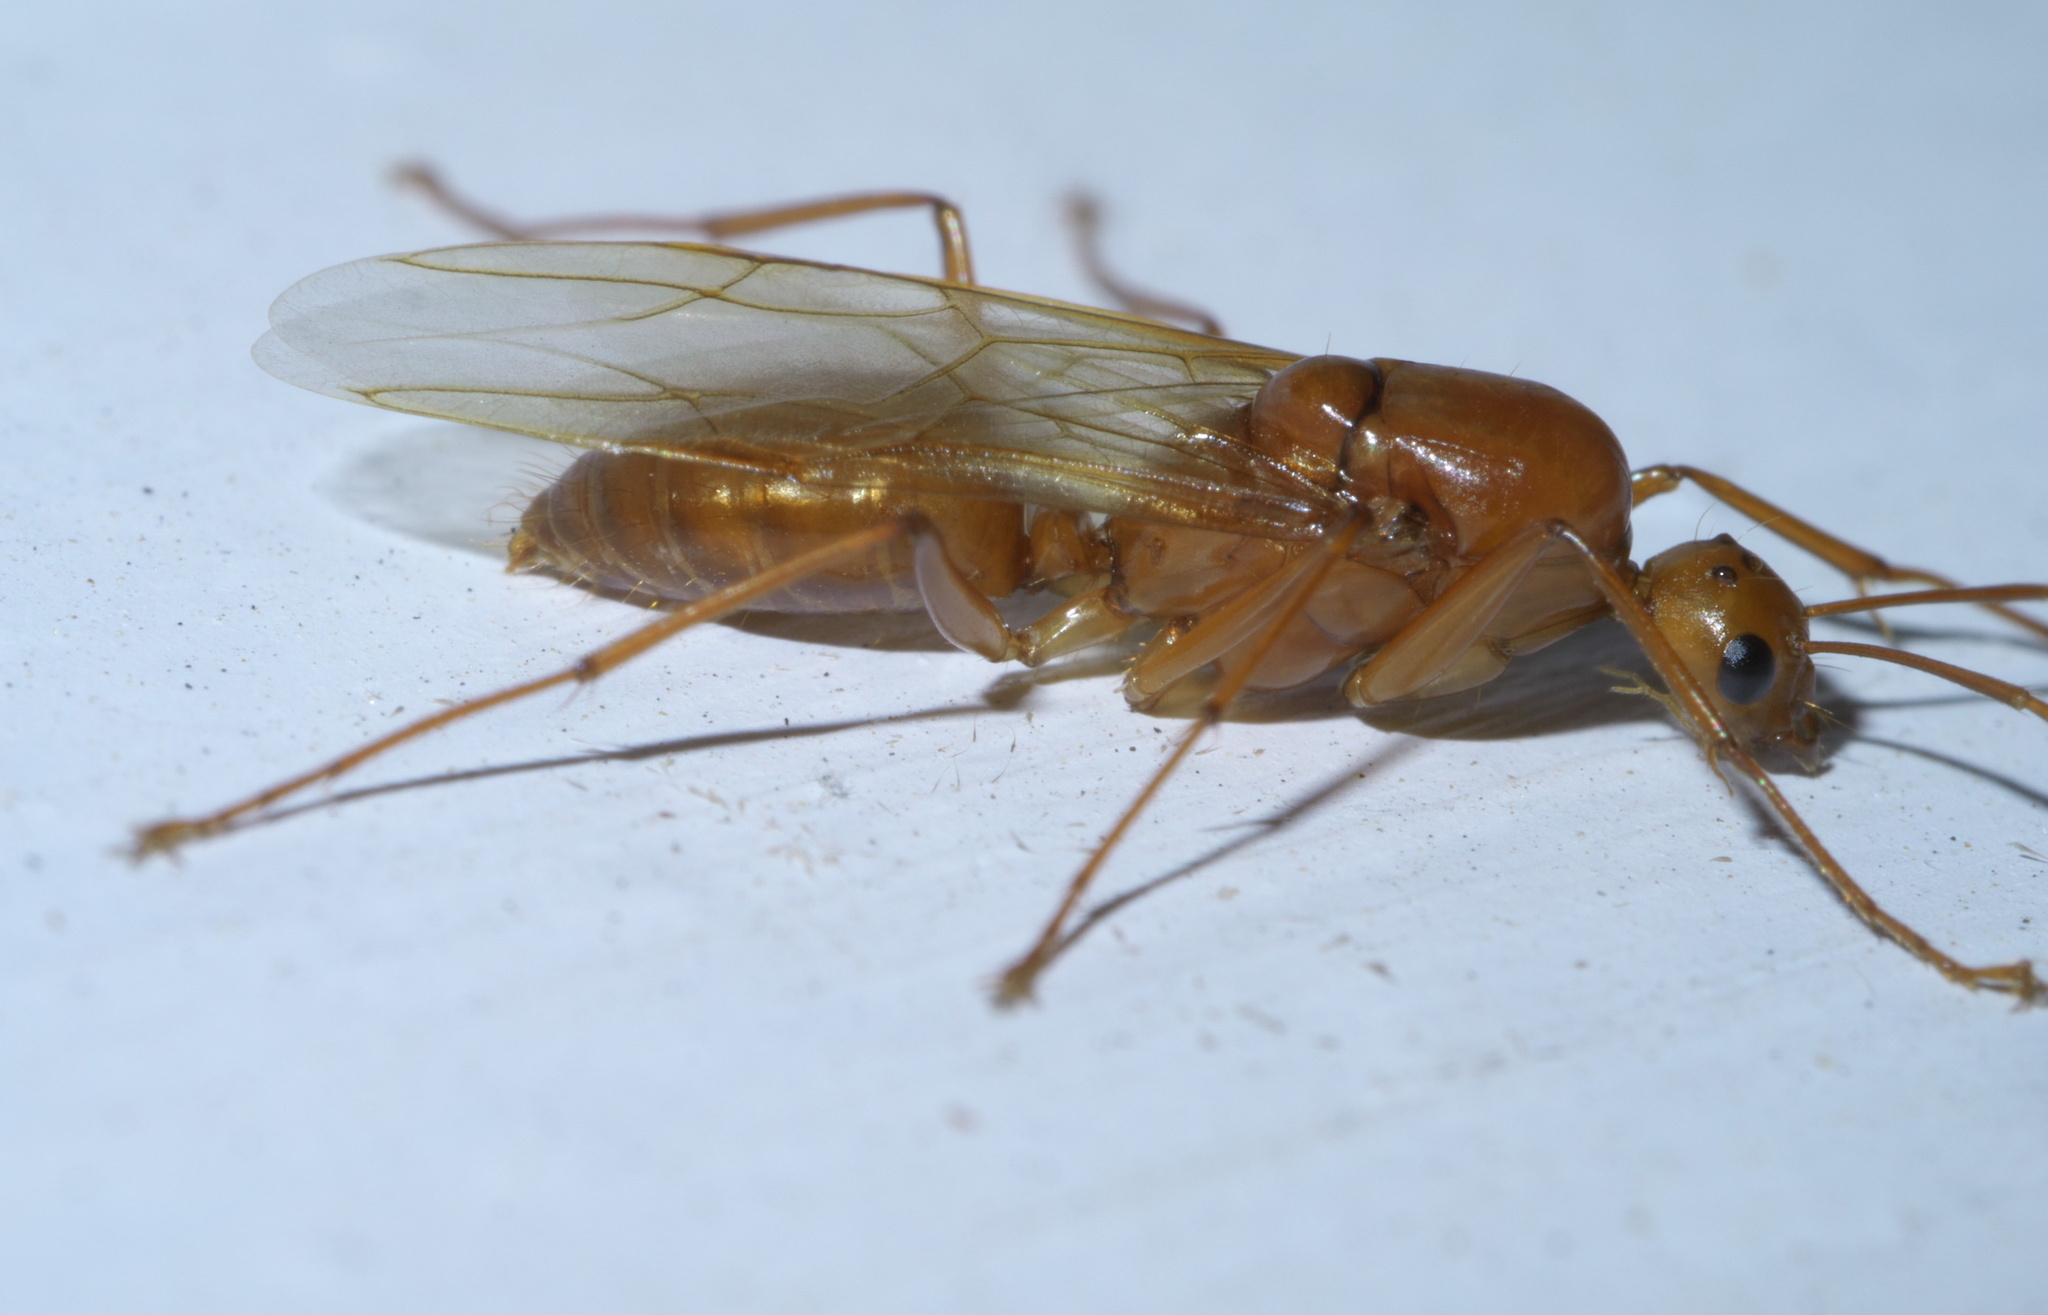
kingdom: Animalia
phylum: Arthropoda
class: Insecta
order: Hymenoptera
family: Formicidae
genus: Camponotus
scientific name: Camponotus castaneus
